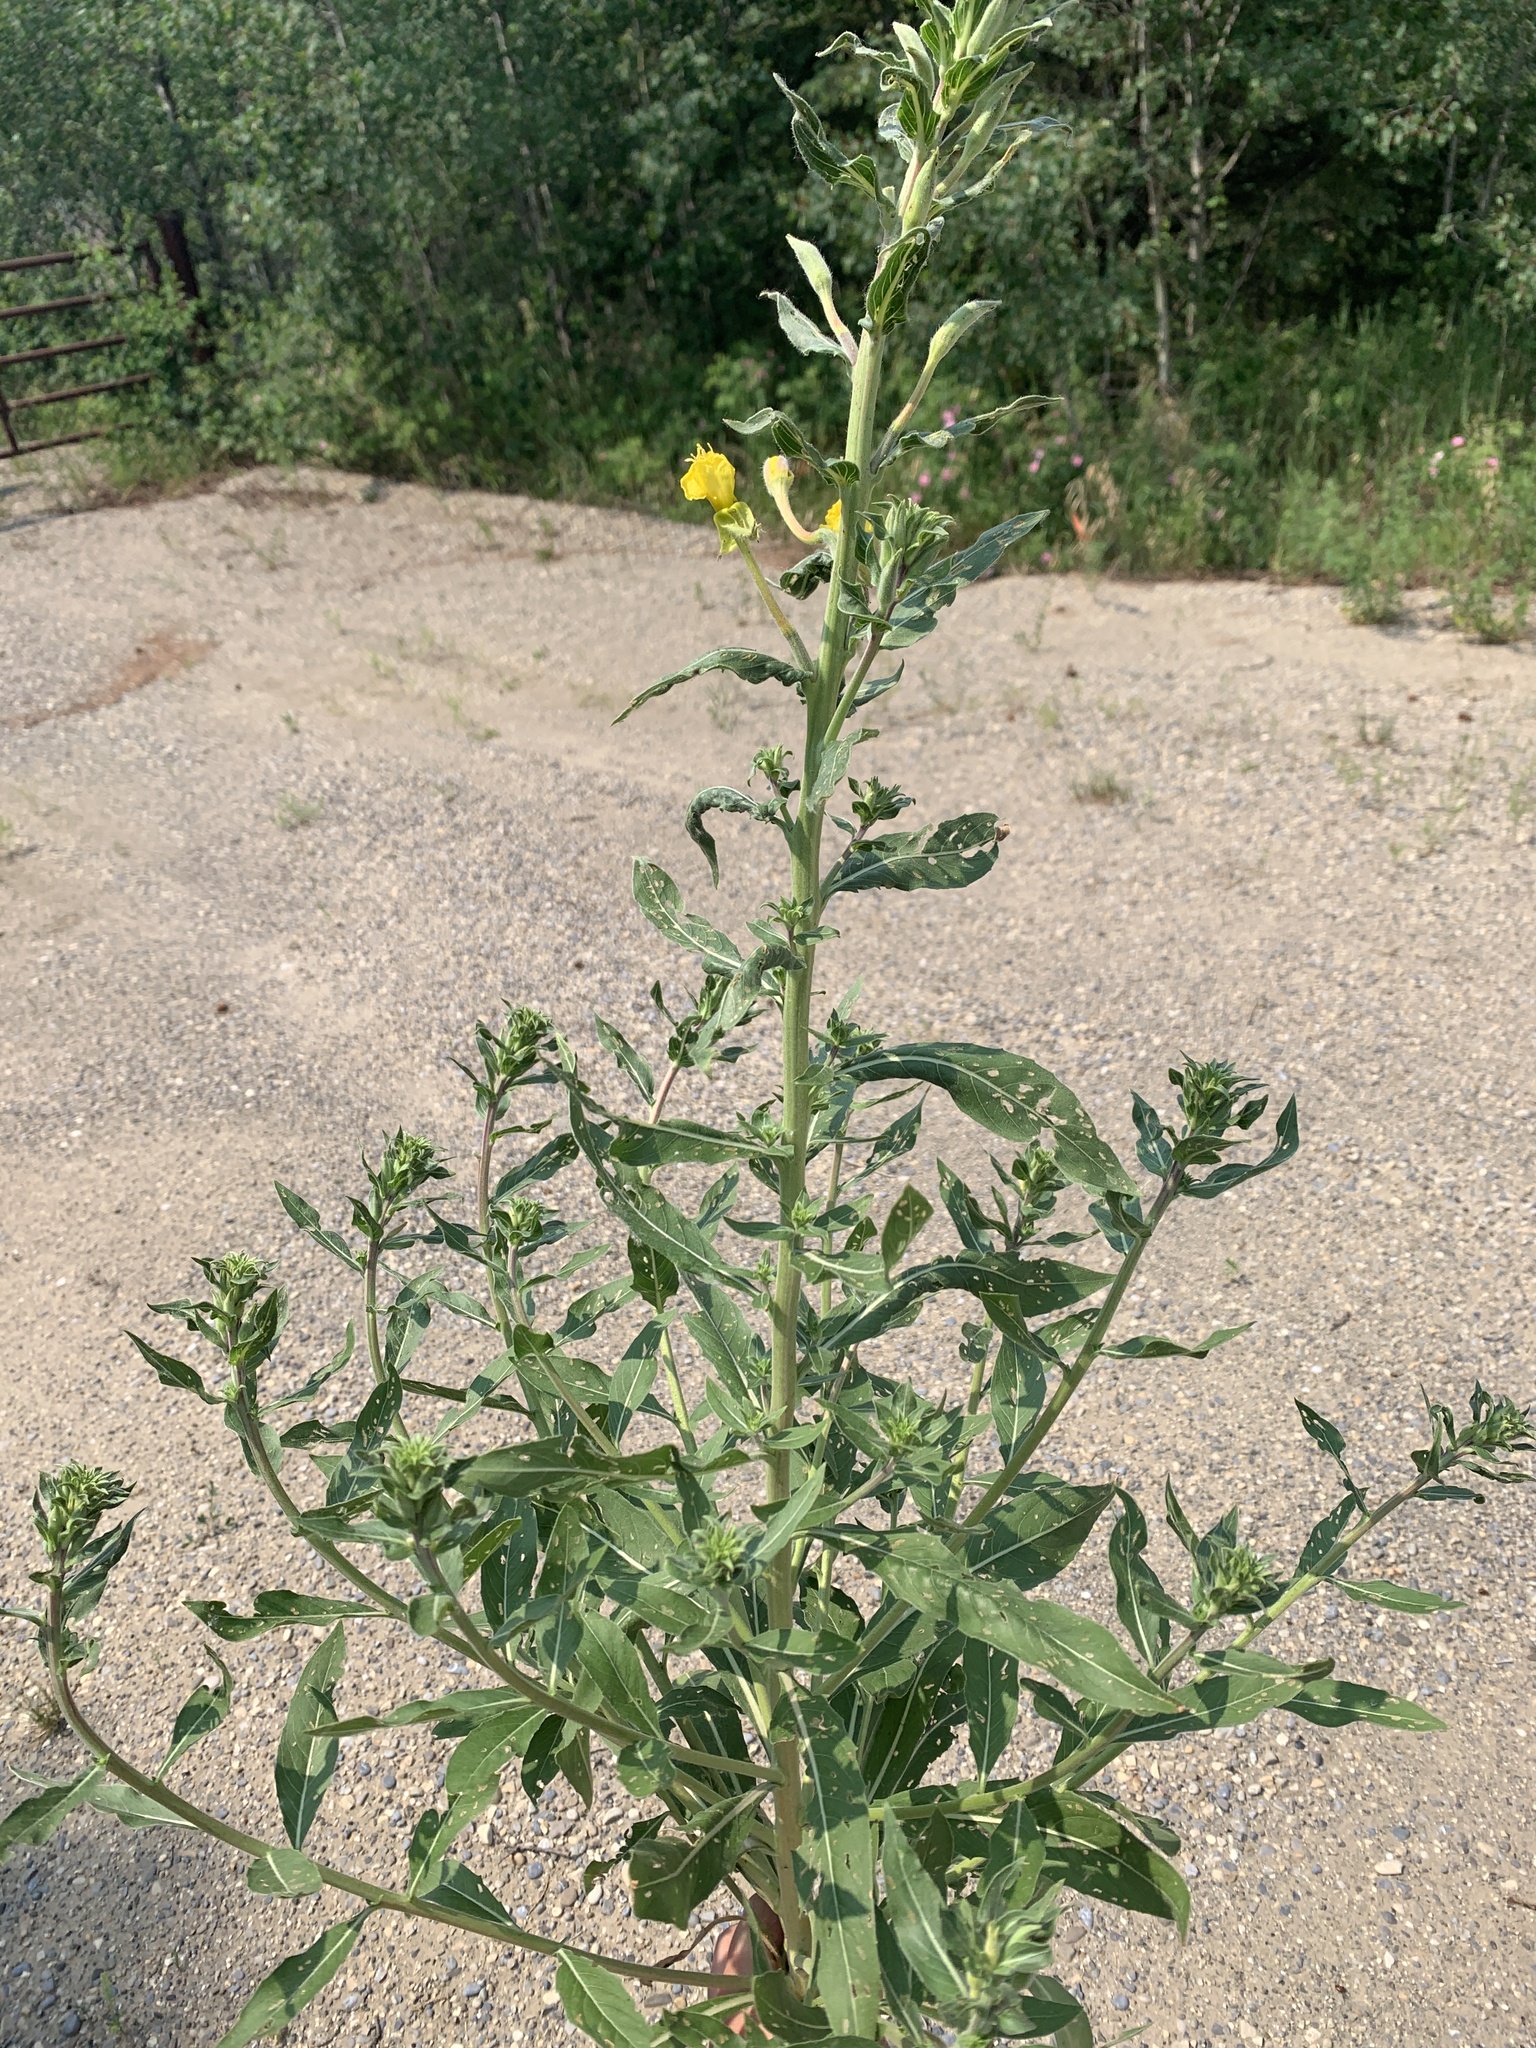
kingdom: Plantae
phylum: Tracheophyta
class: Magnoliopsida
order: Myrtales
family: Onagraceae
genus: Oenothera
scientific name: Oenothera biennis
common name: Common evening-primrose
